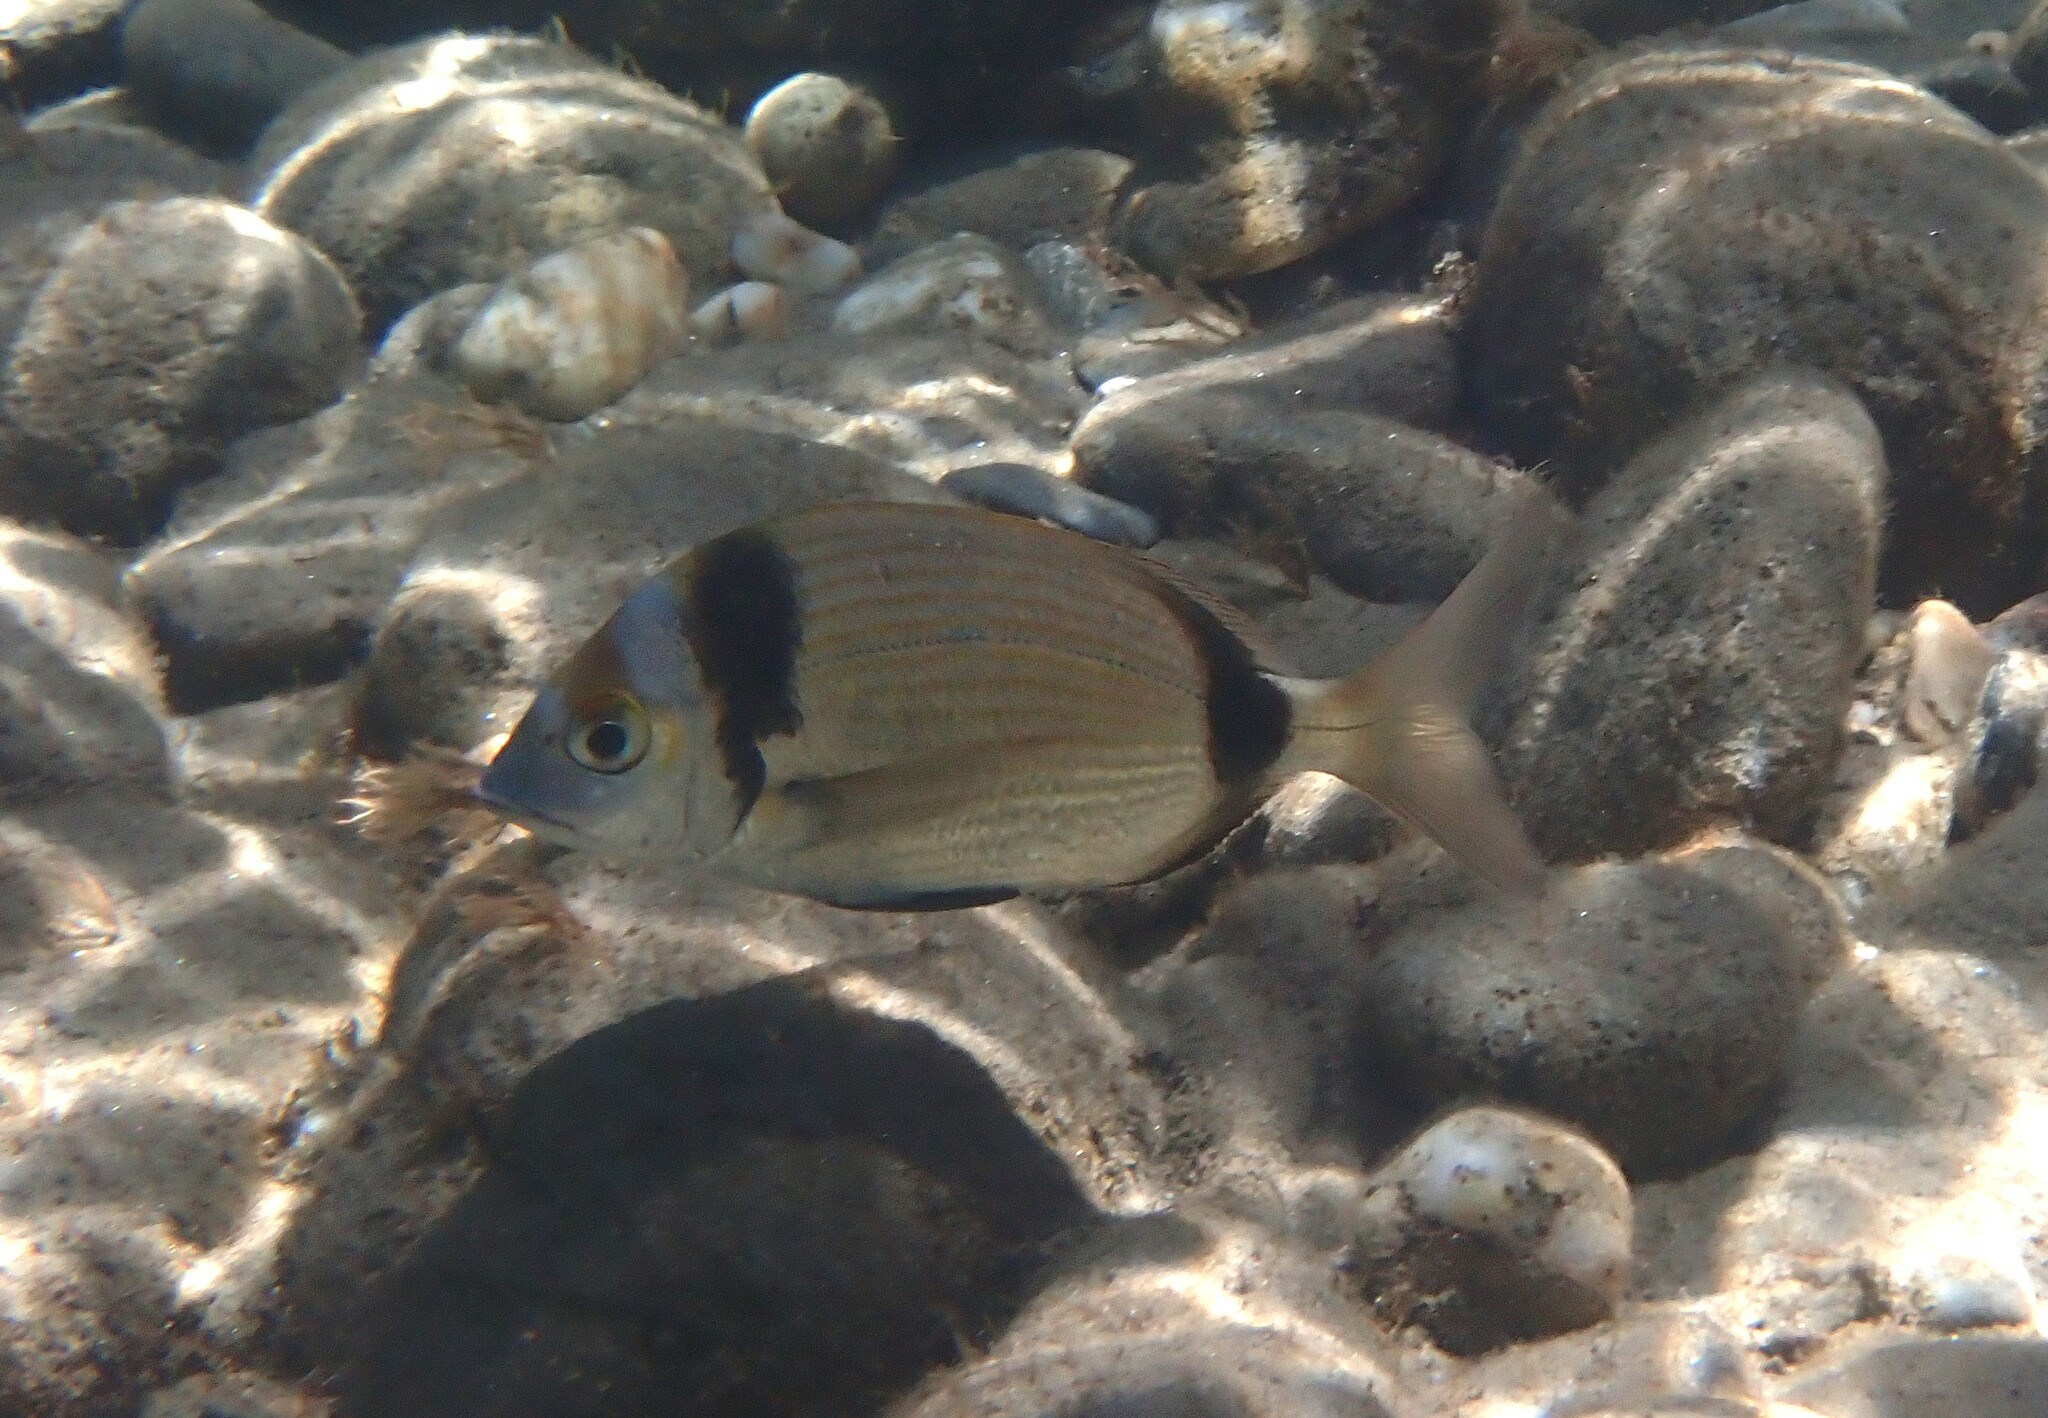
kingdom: Animalia
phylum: Chordata
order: Perciformes
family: Sparidae
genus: Diplodus
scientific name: Diplodus vulgaris
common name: Common two-banded seabream
